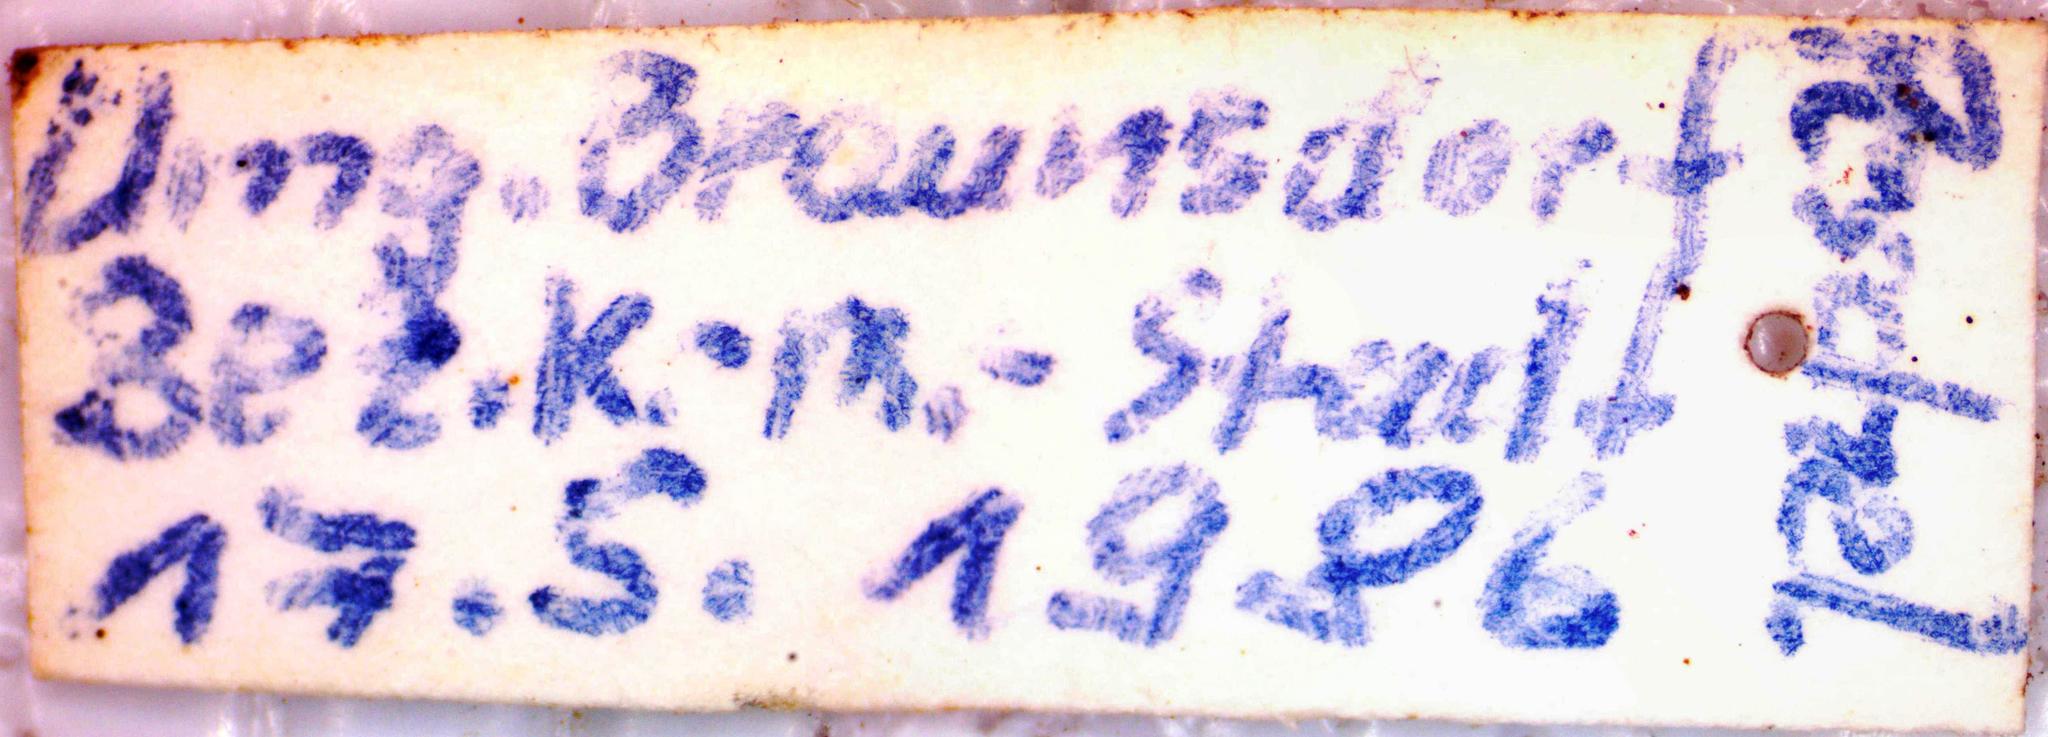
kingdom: Animalia
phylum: Arthropoda
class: Insecta
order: Coleoptera
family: Elateridae
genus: Athous
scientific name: Athous haemorrhoidalis
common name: Red-brown click beetle
